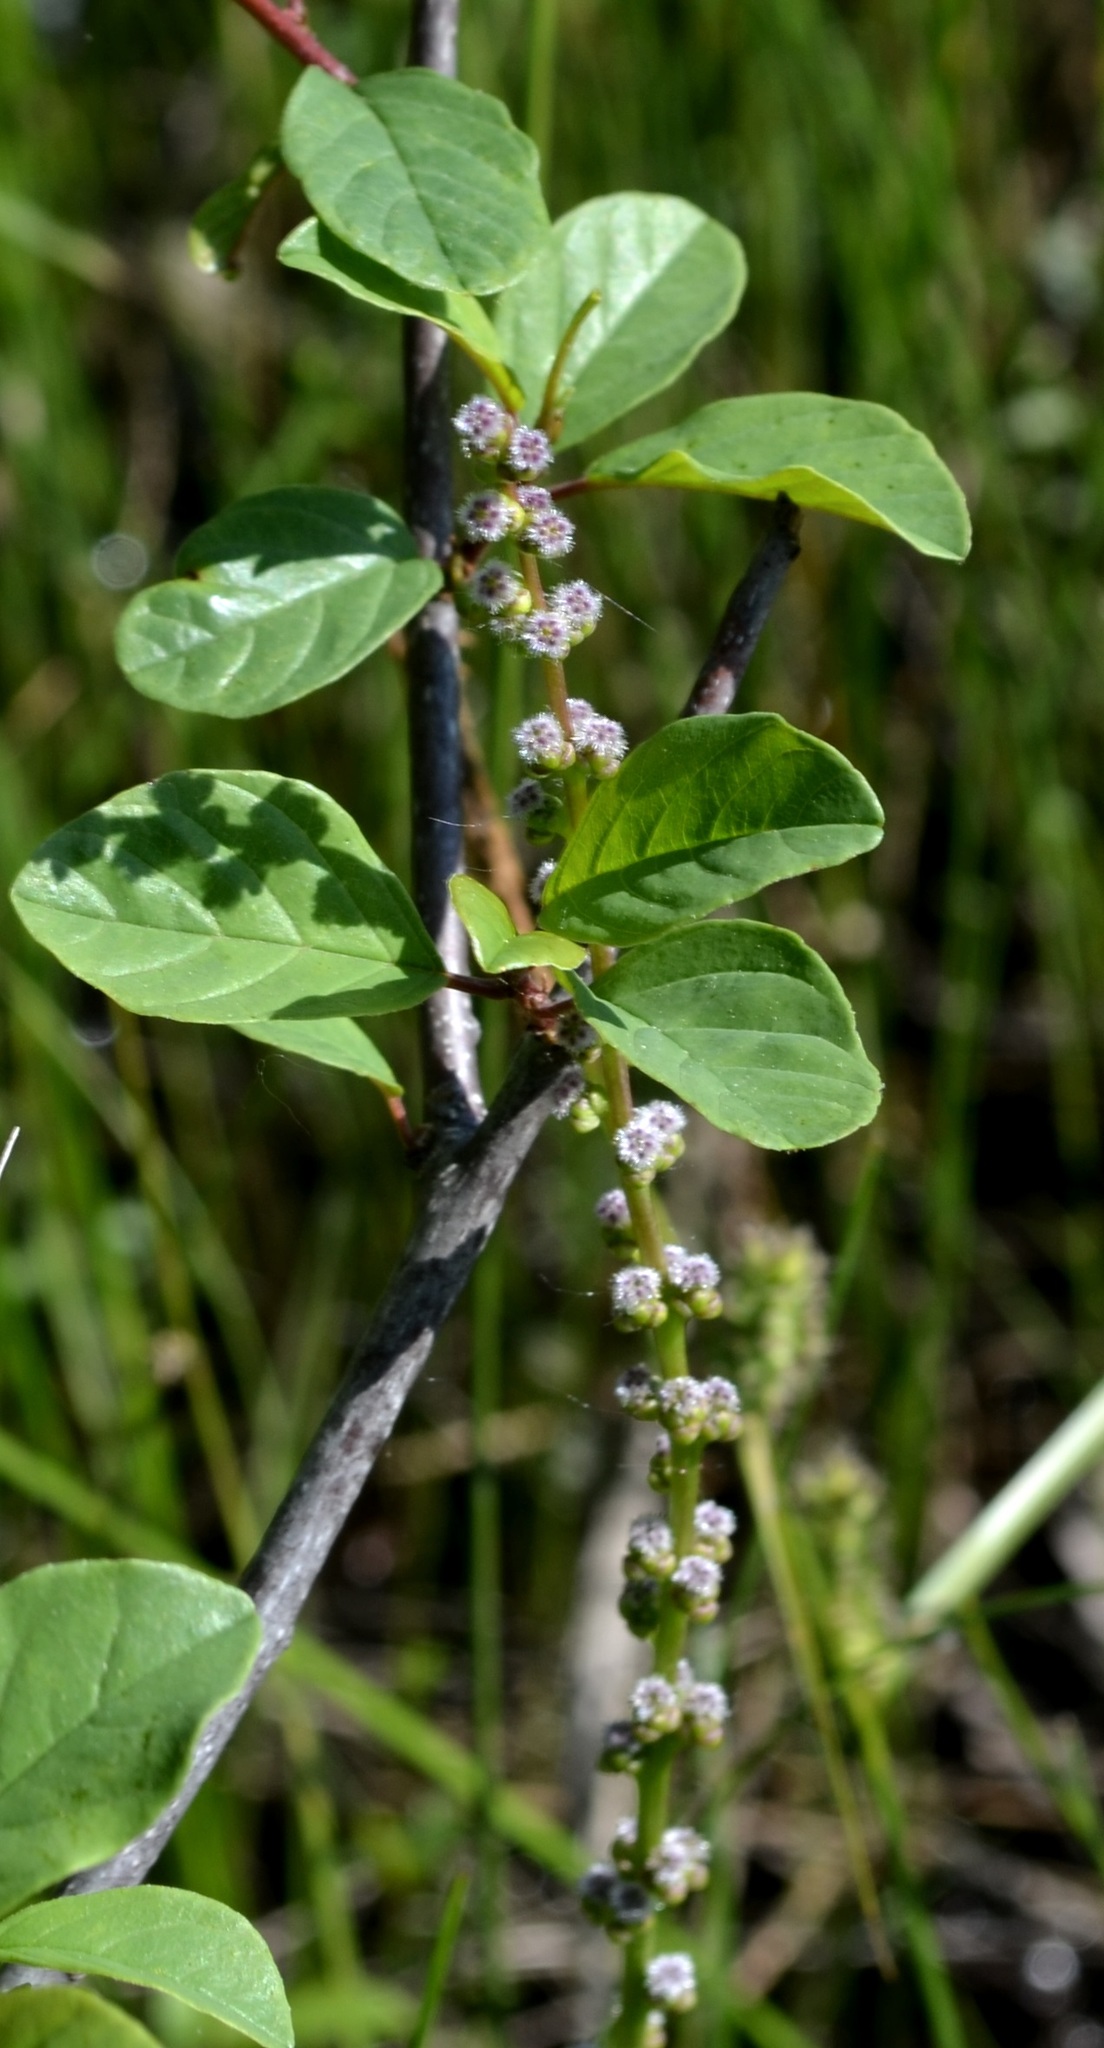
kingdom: Plantae
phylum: Tracheophyta
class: Liliopsida
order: Alismatales
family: Juncaginaceae
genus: Triglochin
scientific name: Triglochin maritima
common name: Sea arrowgrass
